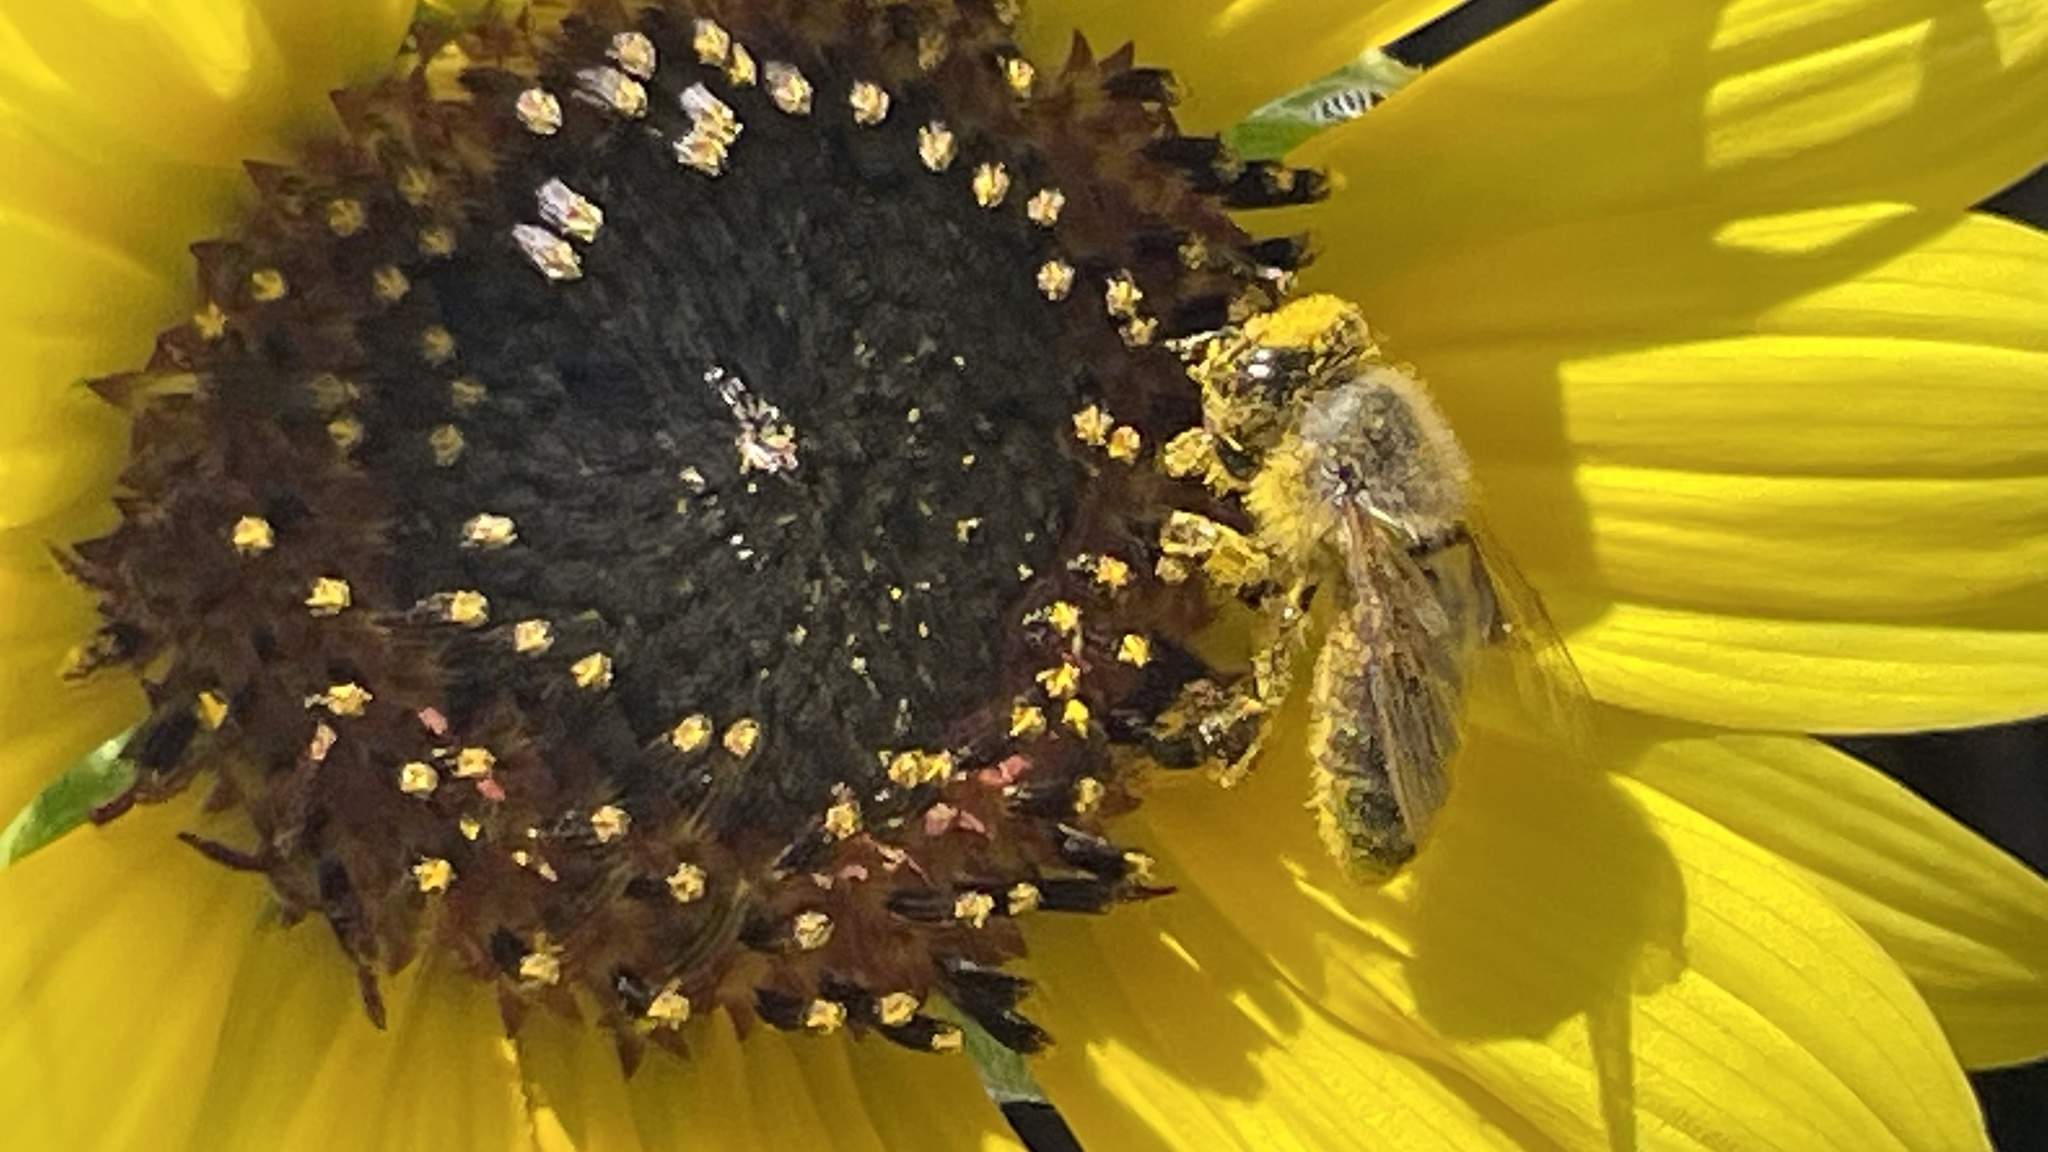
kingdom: Animalia
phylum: Arthropoda
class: Insecta
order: Hymenoptera
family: Apidae
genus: Apis
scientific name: Apis mellifera
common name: Honey bee
